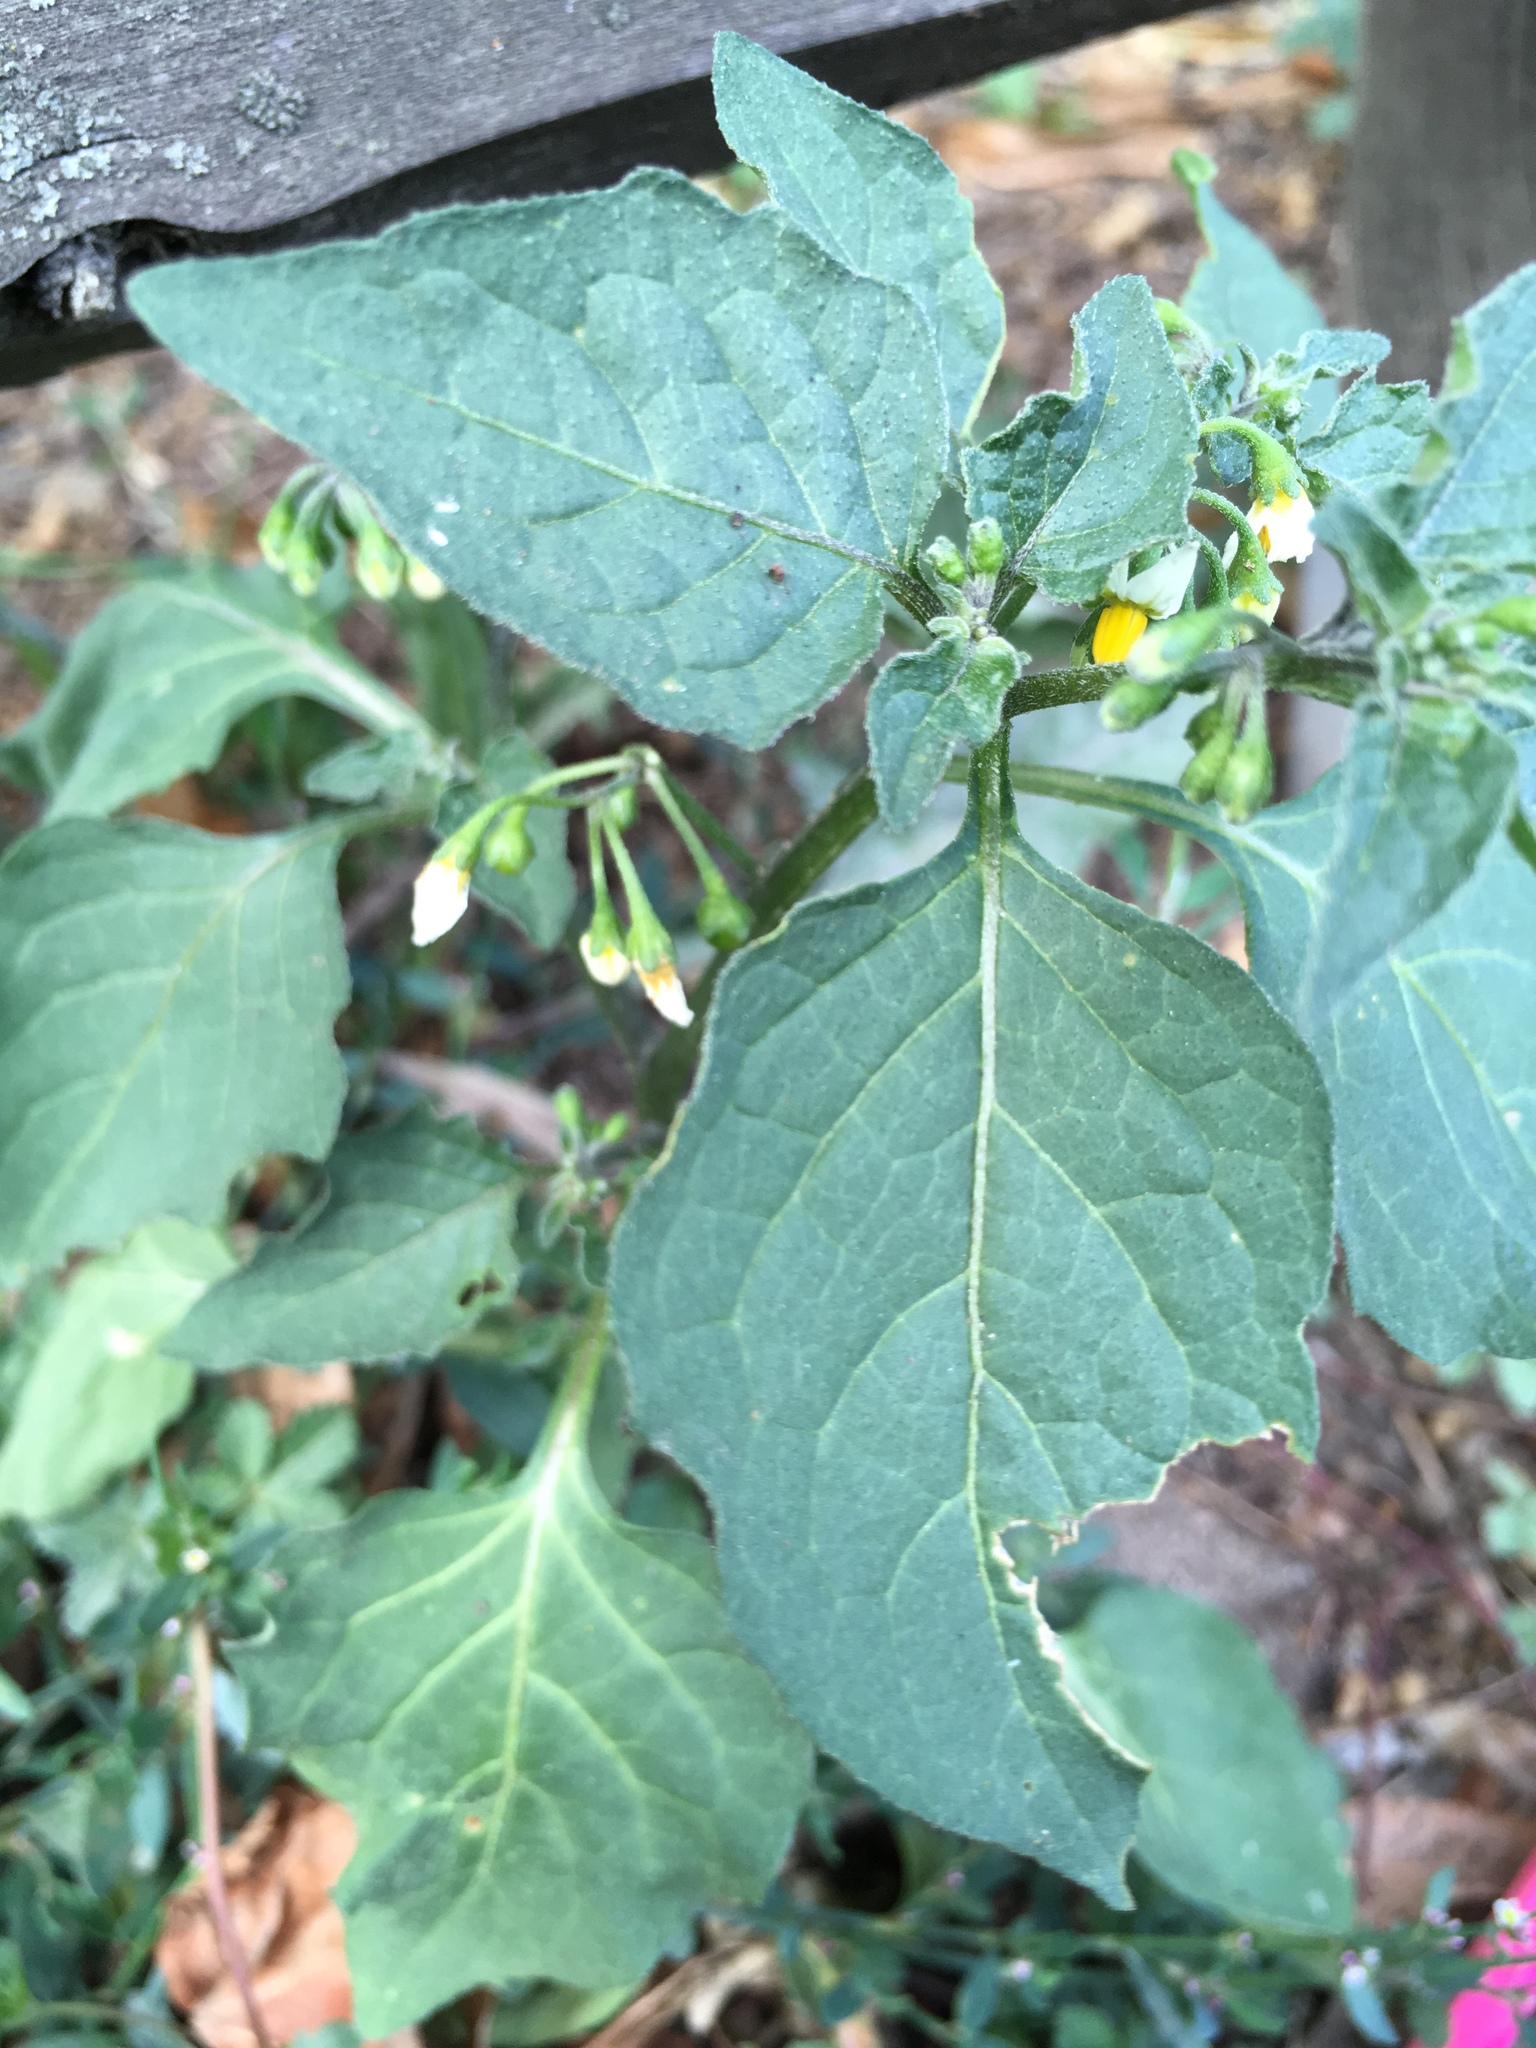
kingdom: Plantae
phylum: Tracheophyta
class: Magnoliopsida
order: Solanales
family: Solanaceae
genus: Solanum
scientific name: Solanum nigrum
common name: Black nightshade
